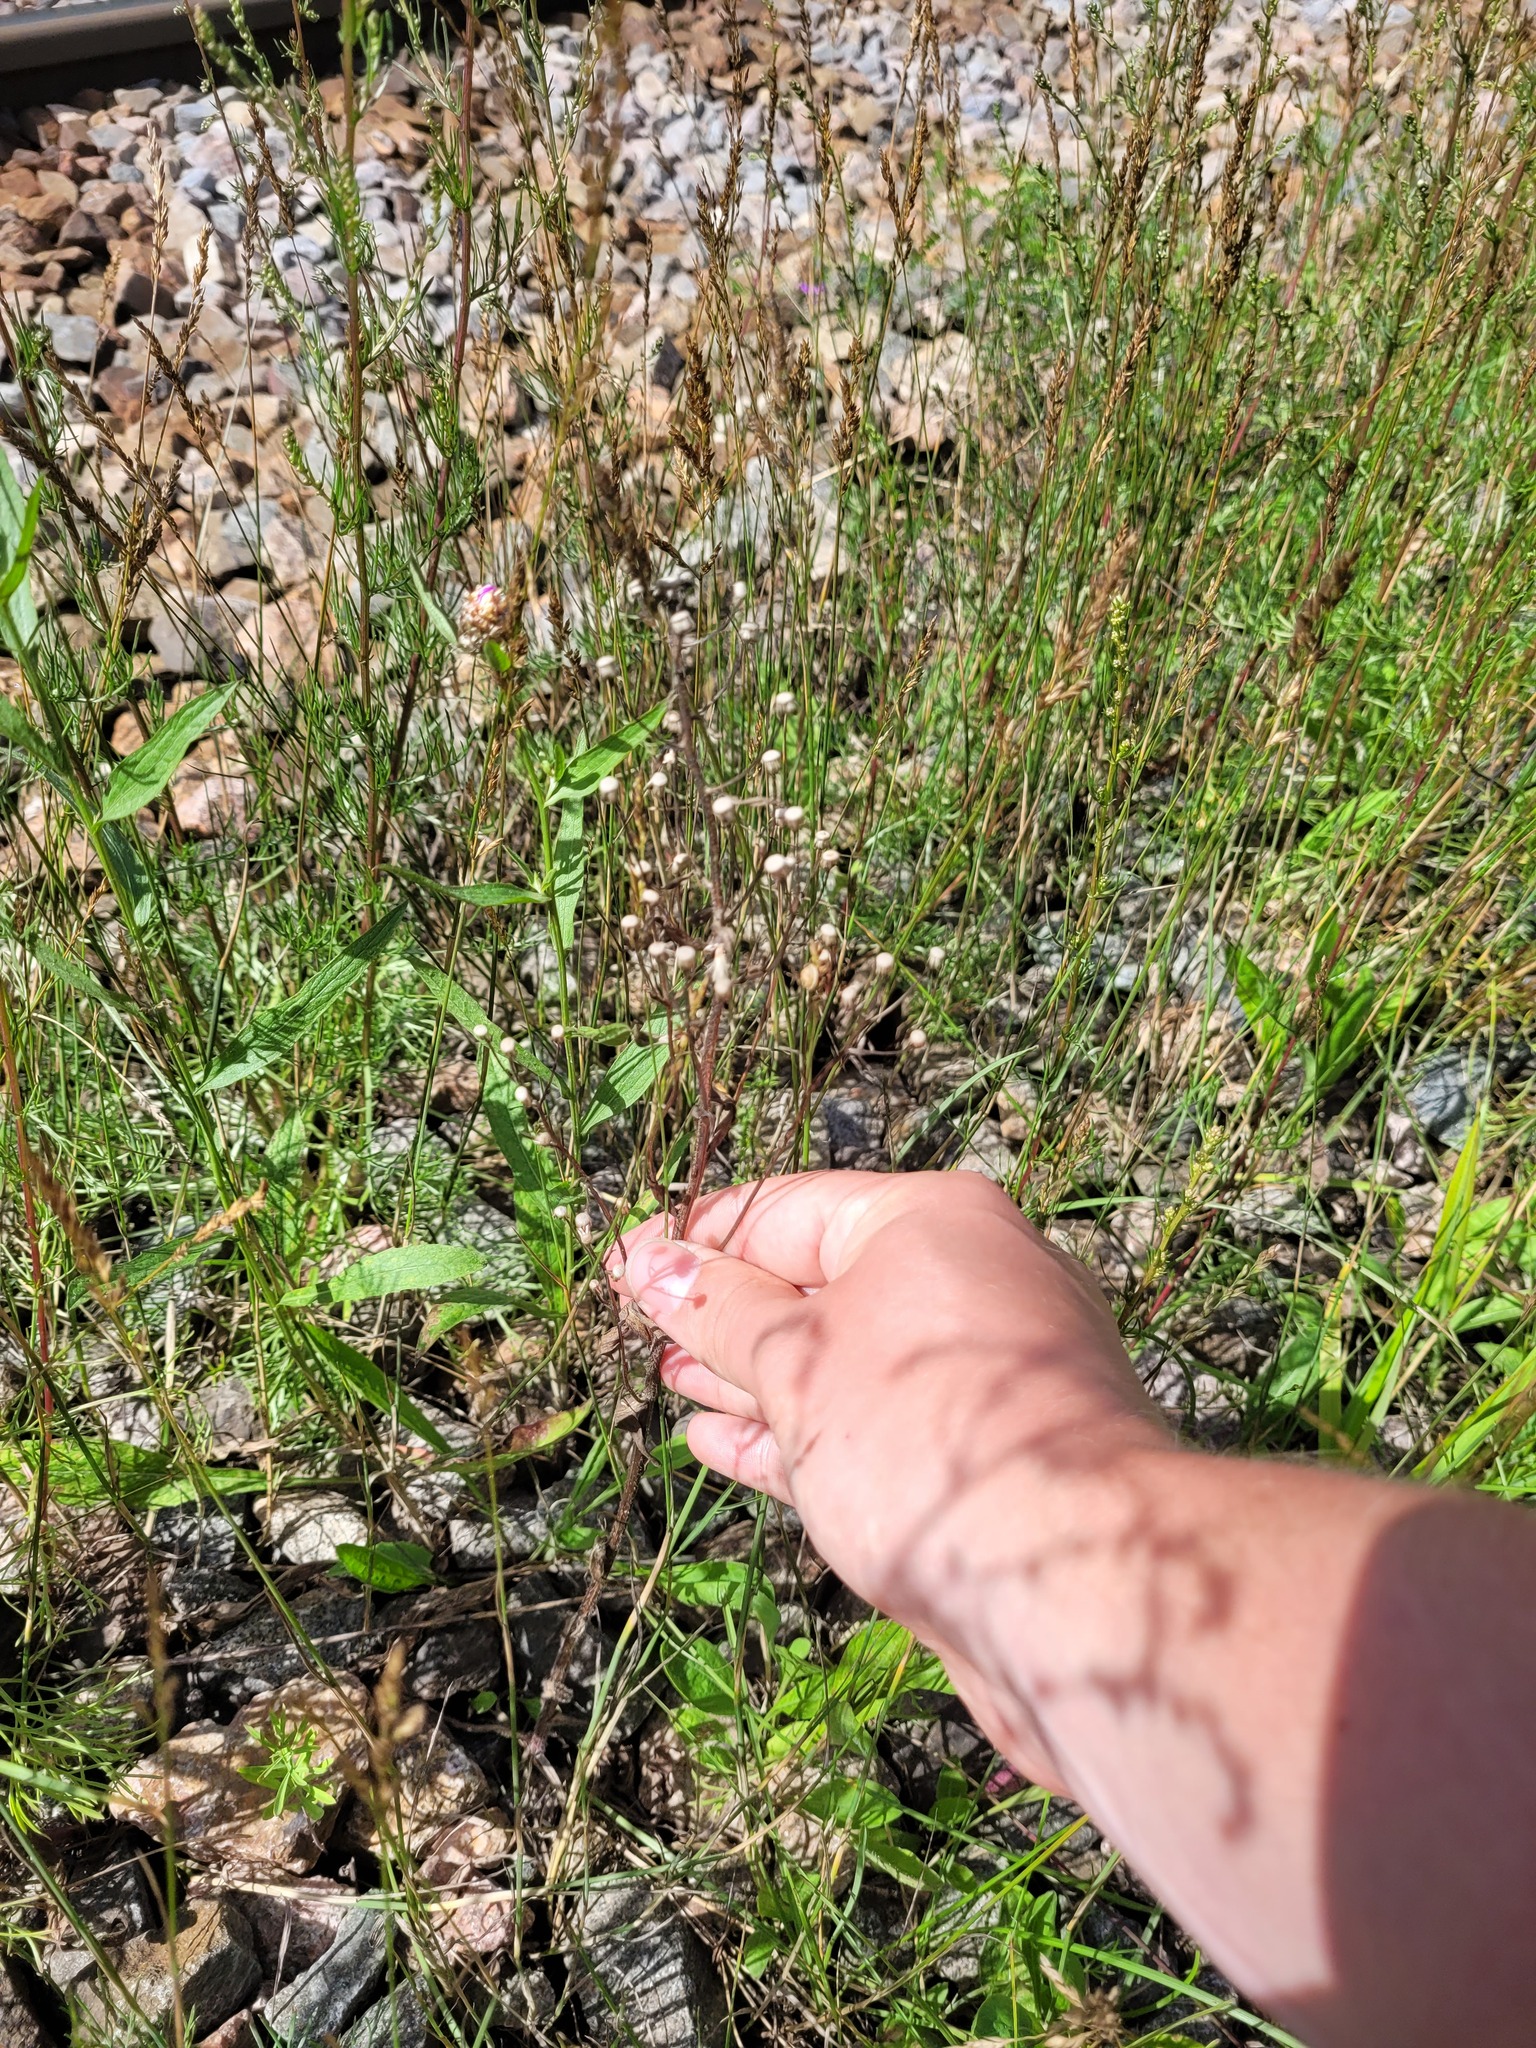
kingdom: Plantae
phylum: Tracheophyta
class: Magnoliopsida
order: Asterales
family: Asteraceae
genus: Erigeron
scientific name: Erigeron acris
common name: Blue fleabane
